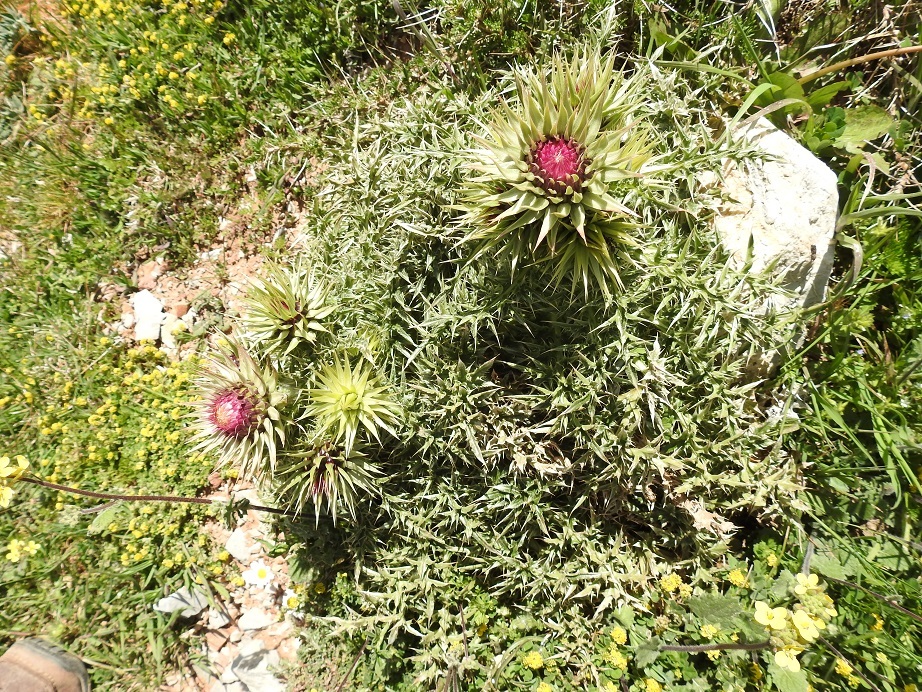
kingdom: Plantae
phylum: Tracheophyta
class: Magnoliopsida
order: Asterales
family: Asteraceae
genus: Carduus
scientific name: Carduus macrocephalus
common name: Giant thistle
